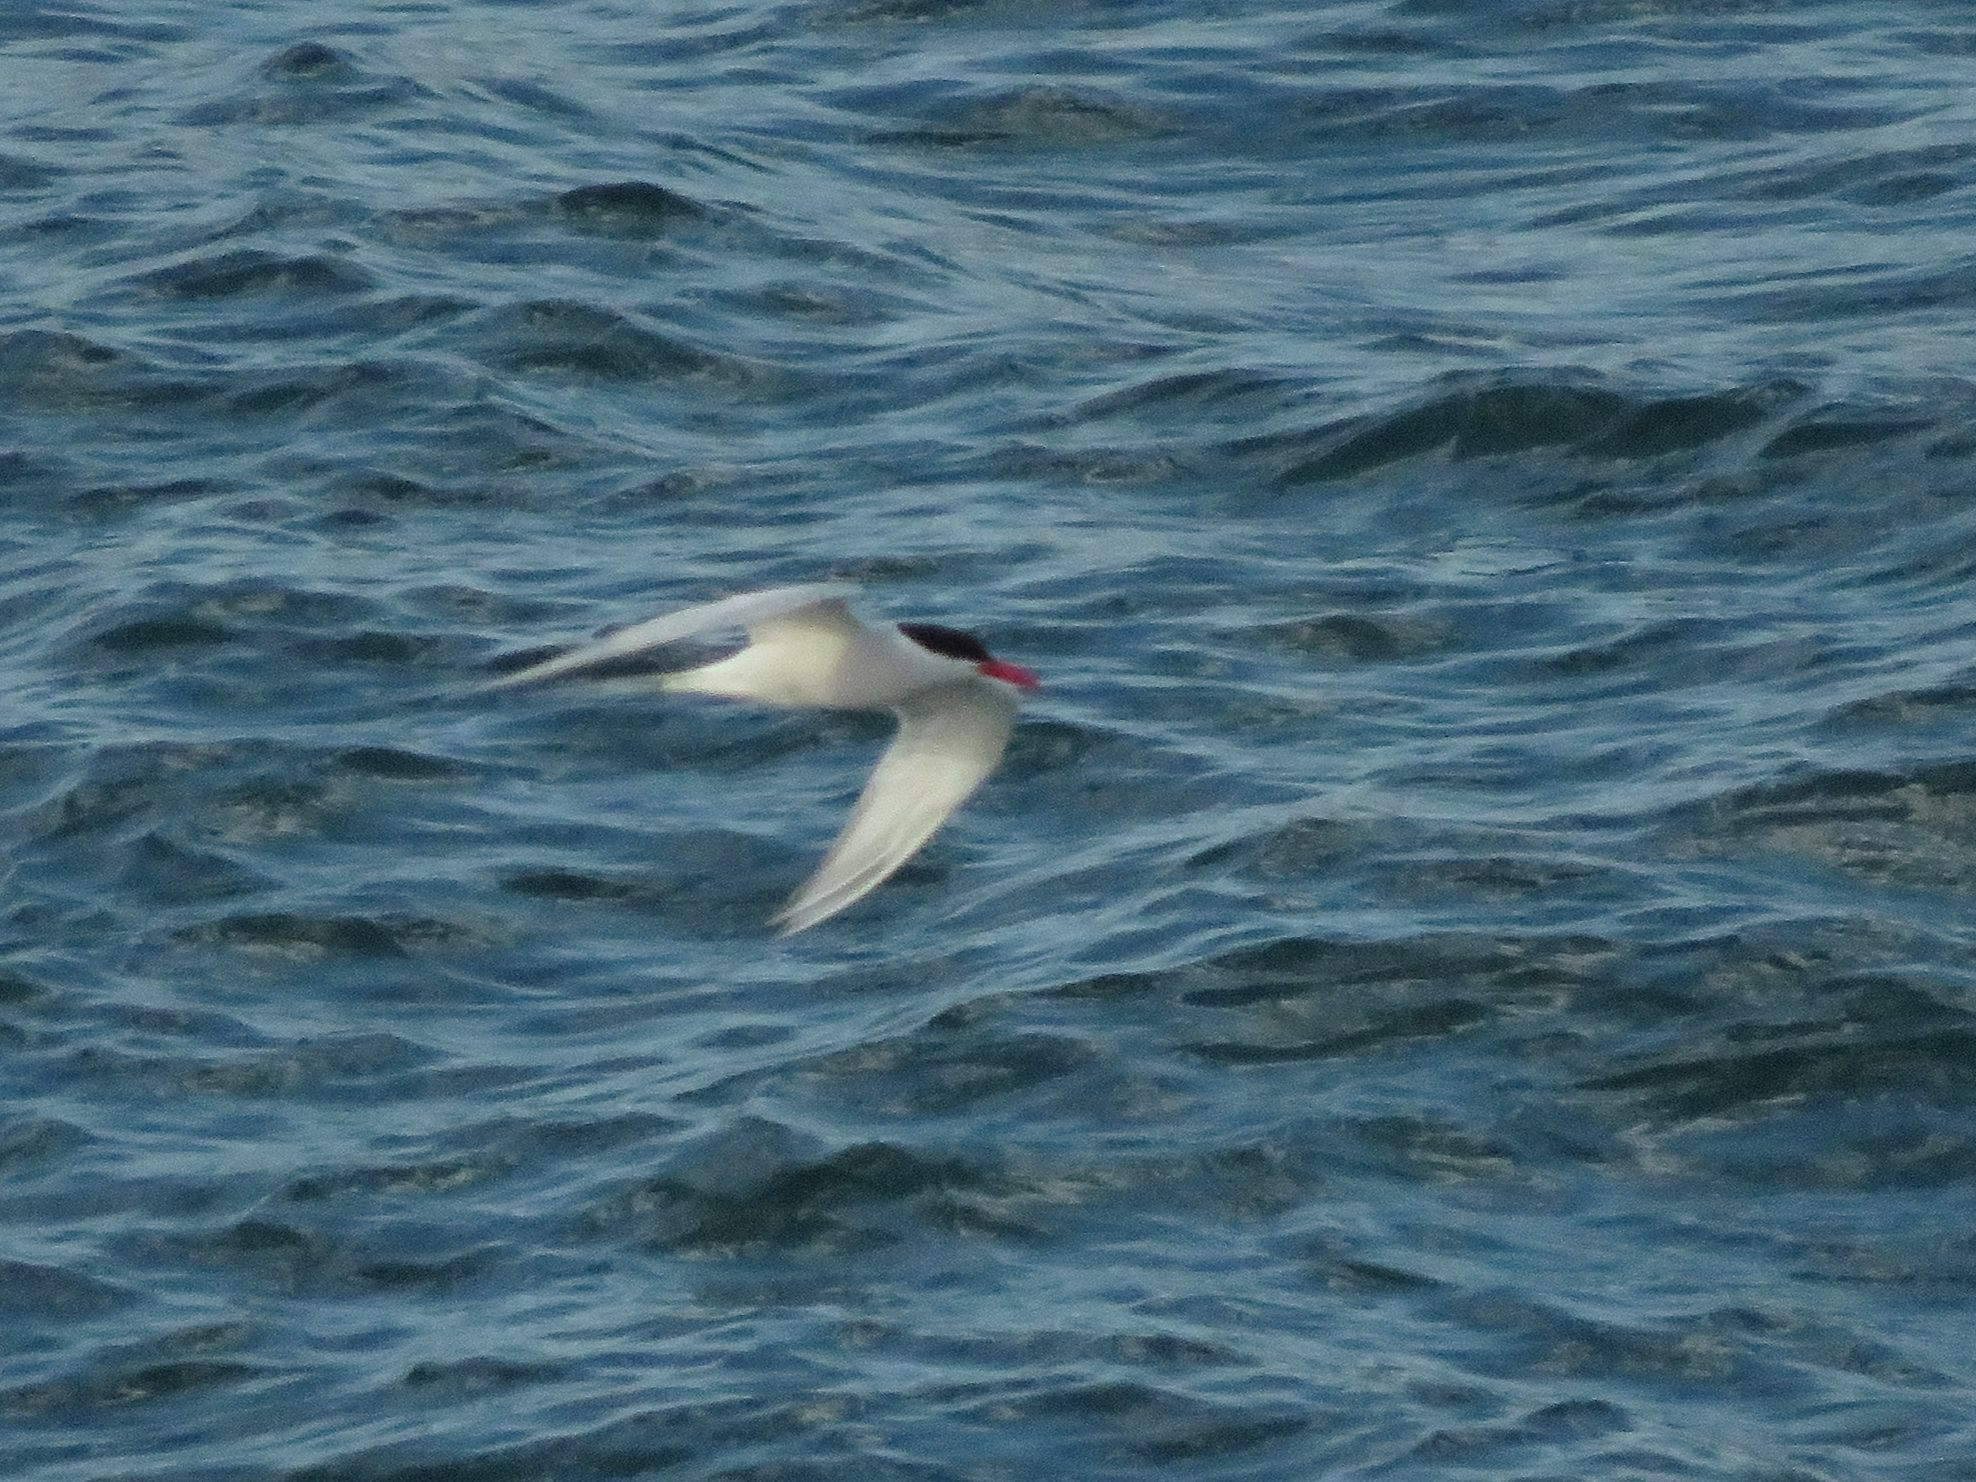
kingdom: Animalia
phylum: Chordata
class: Aves
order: Charadriiformes
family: Laridae
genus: Sterna
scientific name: Sterna hirundinacea
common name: South american tern
